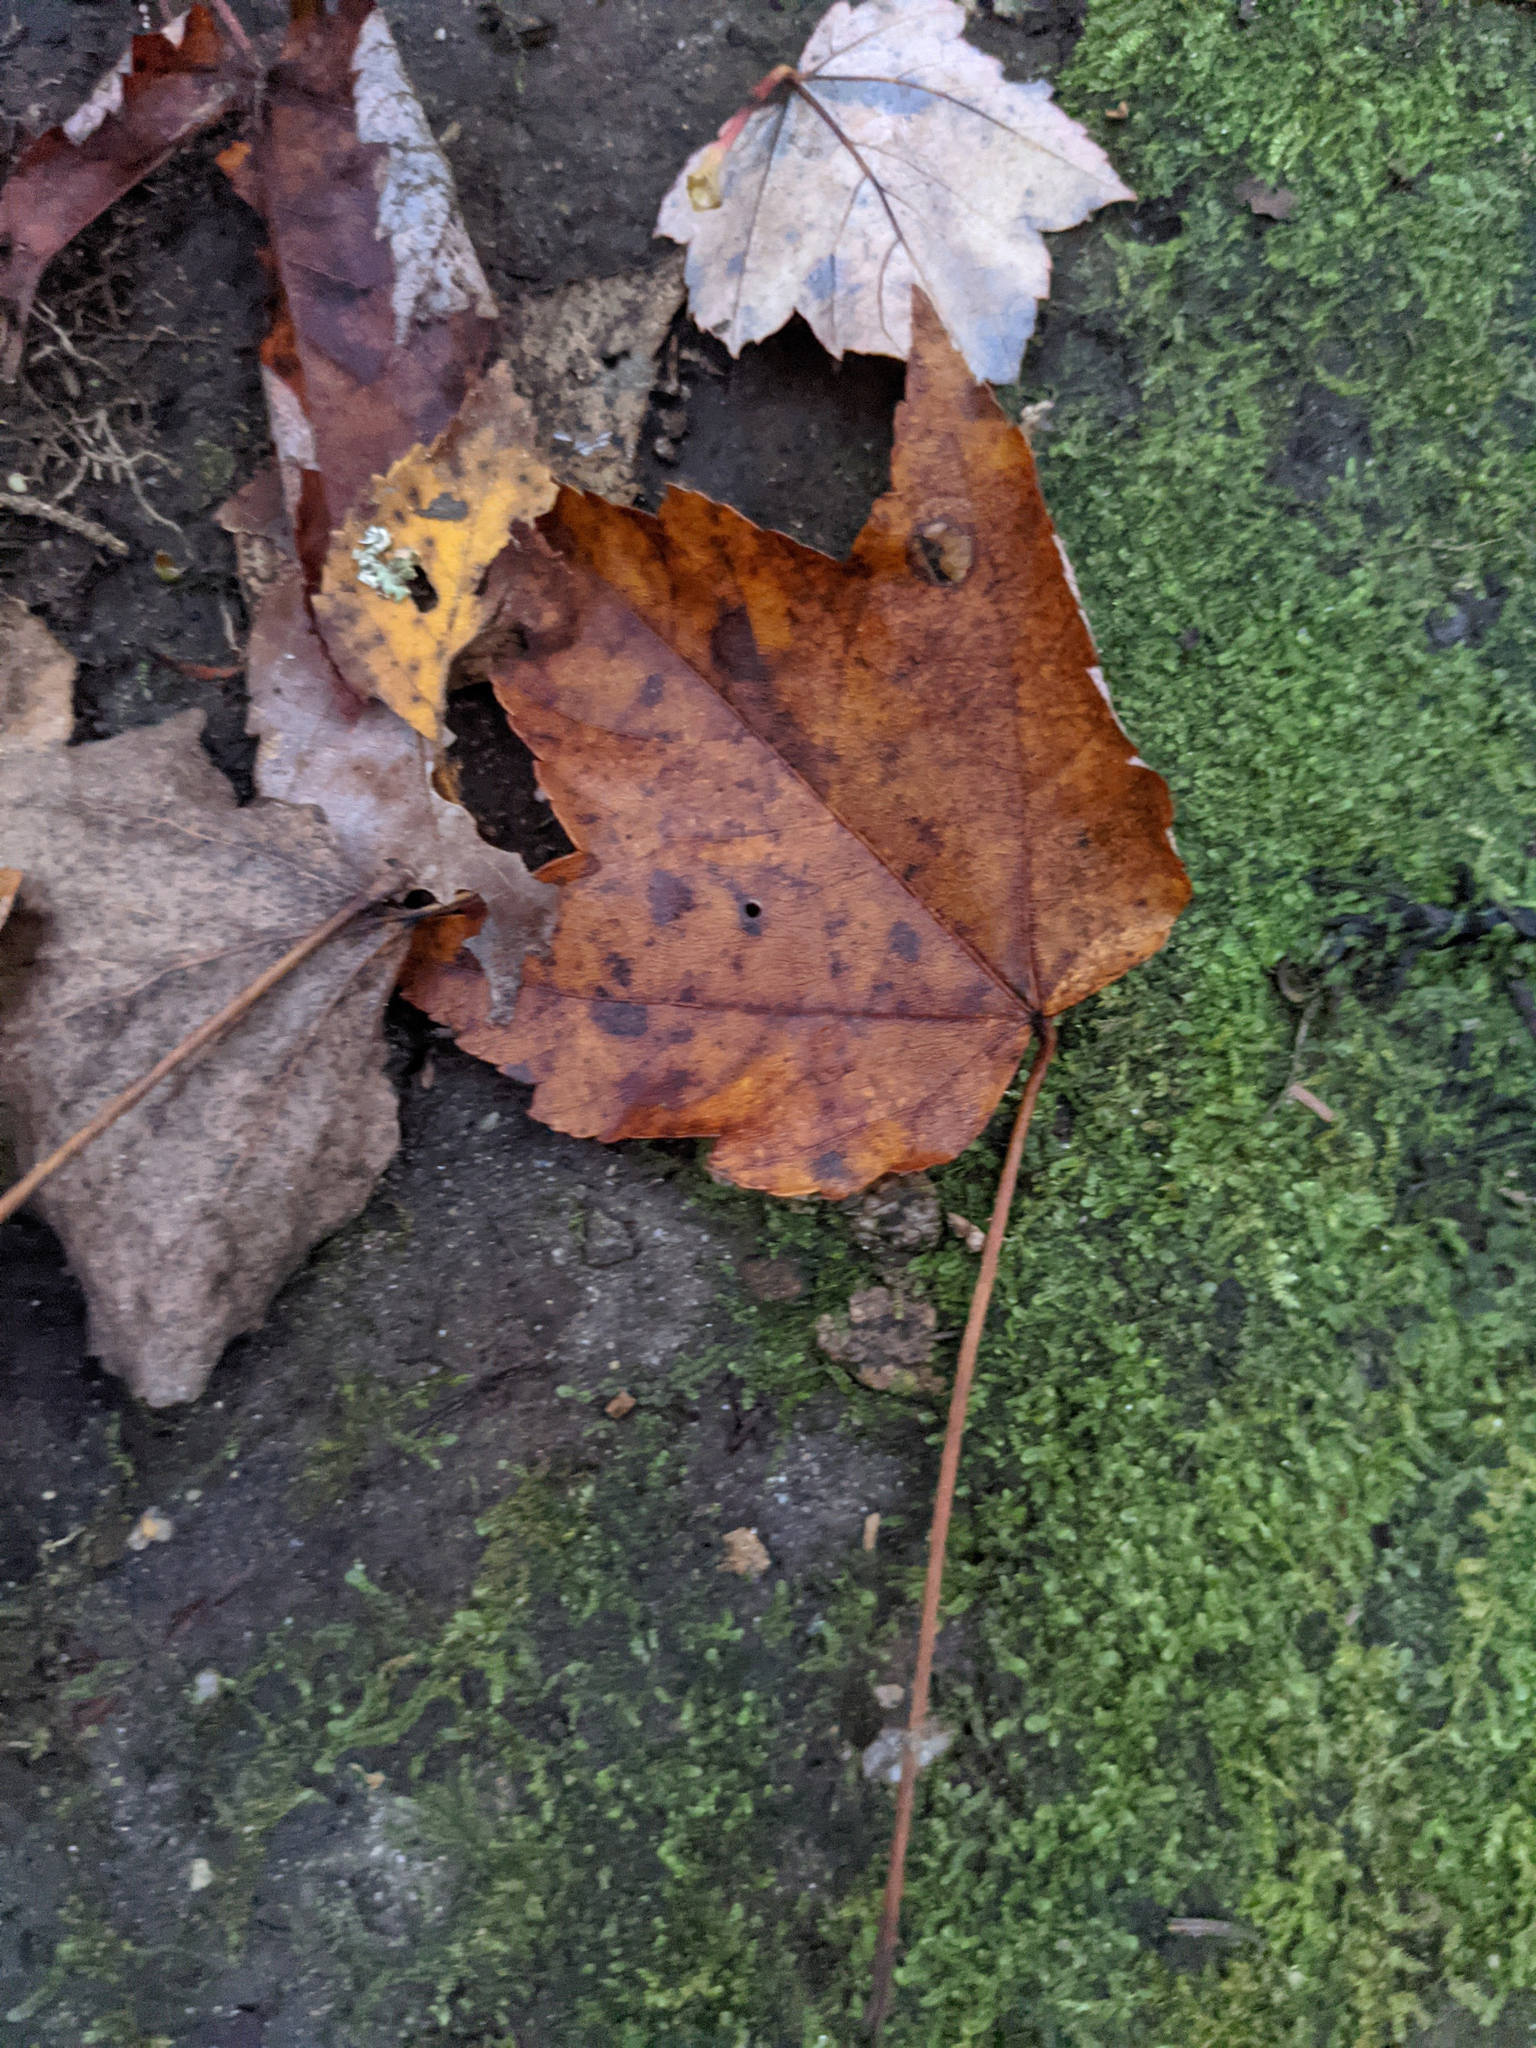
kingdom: Plantae
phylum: Tracheophyta
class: Magnoliopsida
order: Sapindales
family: Sapindaceae
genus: Acer
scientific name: Acer rubrum
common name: Red maple
